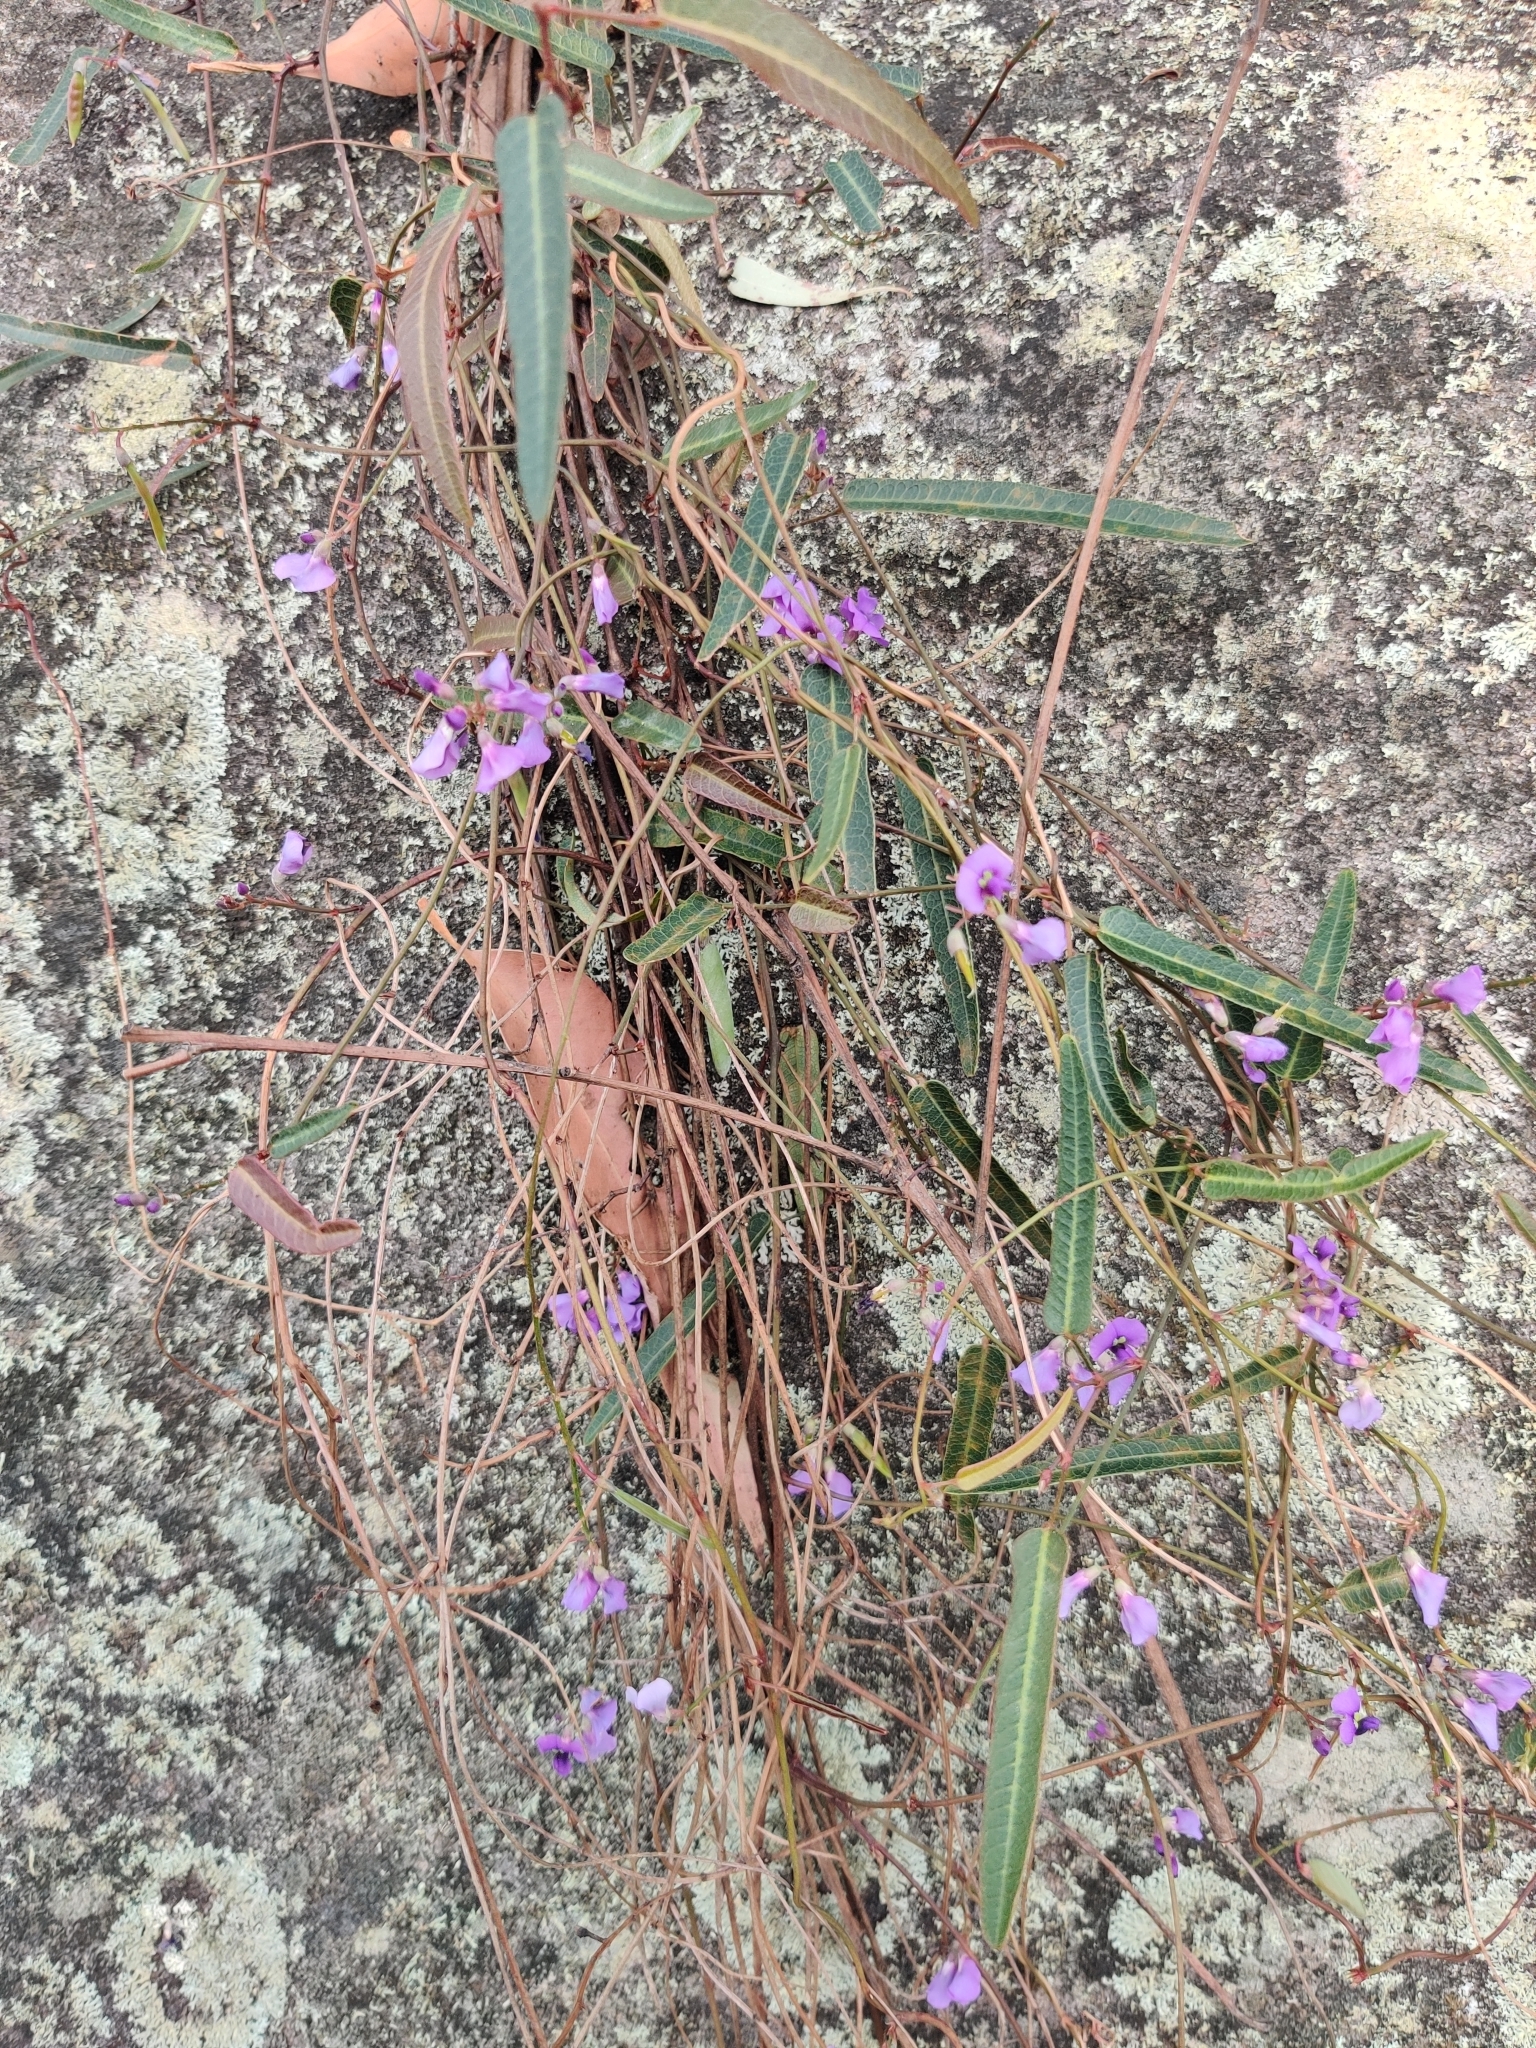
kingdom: Plantae
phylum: Tracheophyta
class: Magnoliopsida
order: Fabales
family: Fabaceae
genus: Hardenbergia
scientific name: Hardenbergia violacea
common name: Coral-pea
